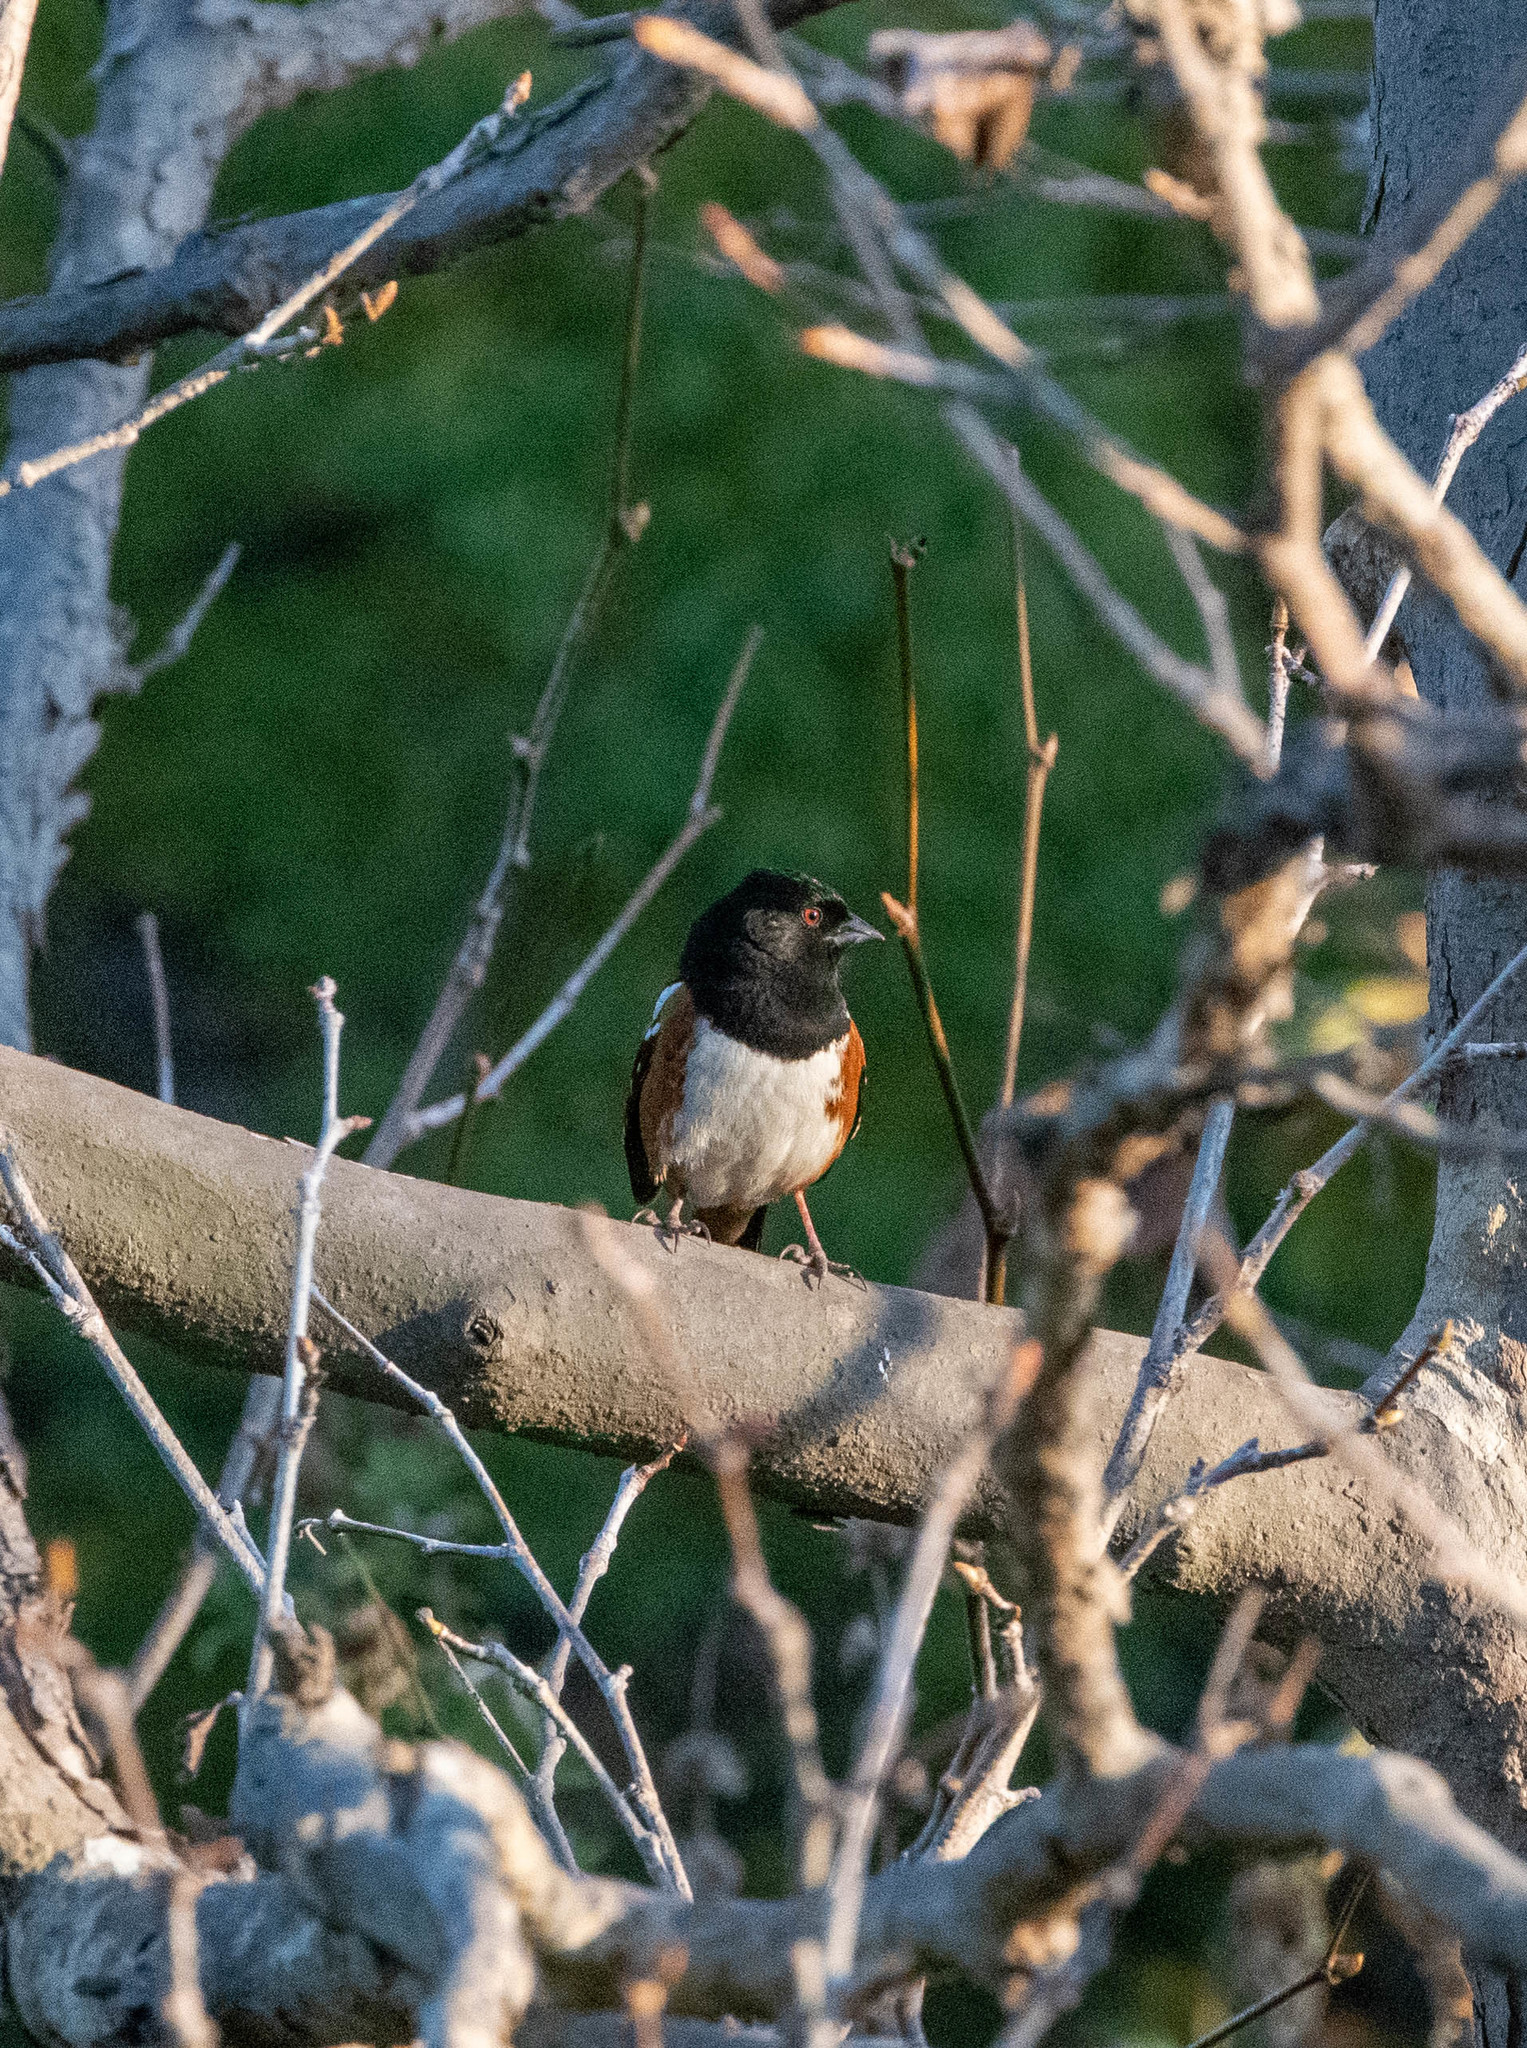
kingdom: Animalia
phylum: Chordata
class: Aves
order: Passeriformes
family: Passerellidae
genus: Pipilo
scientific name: Pipilo maculatus
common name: Spotted towhee
